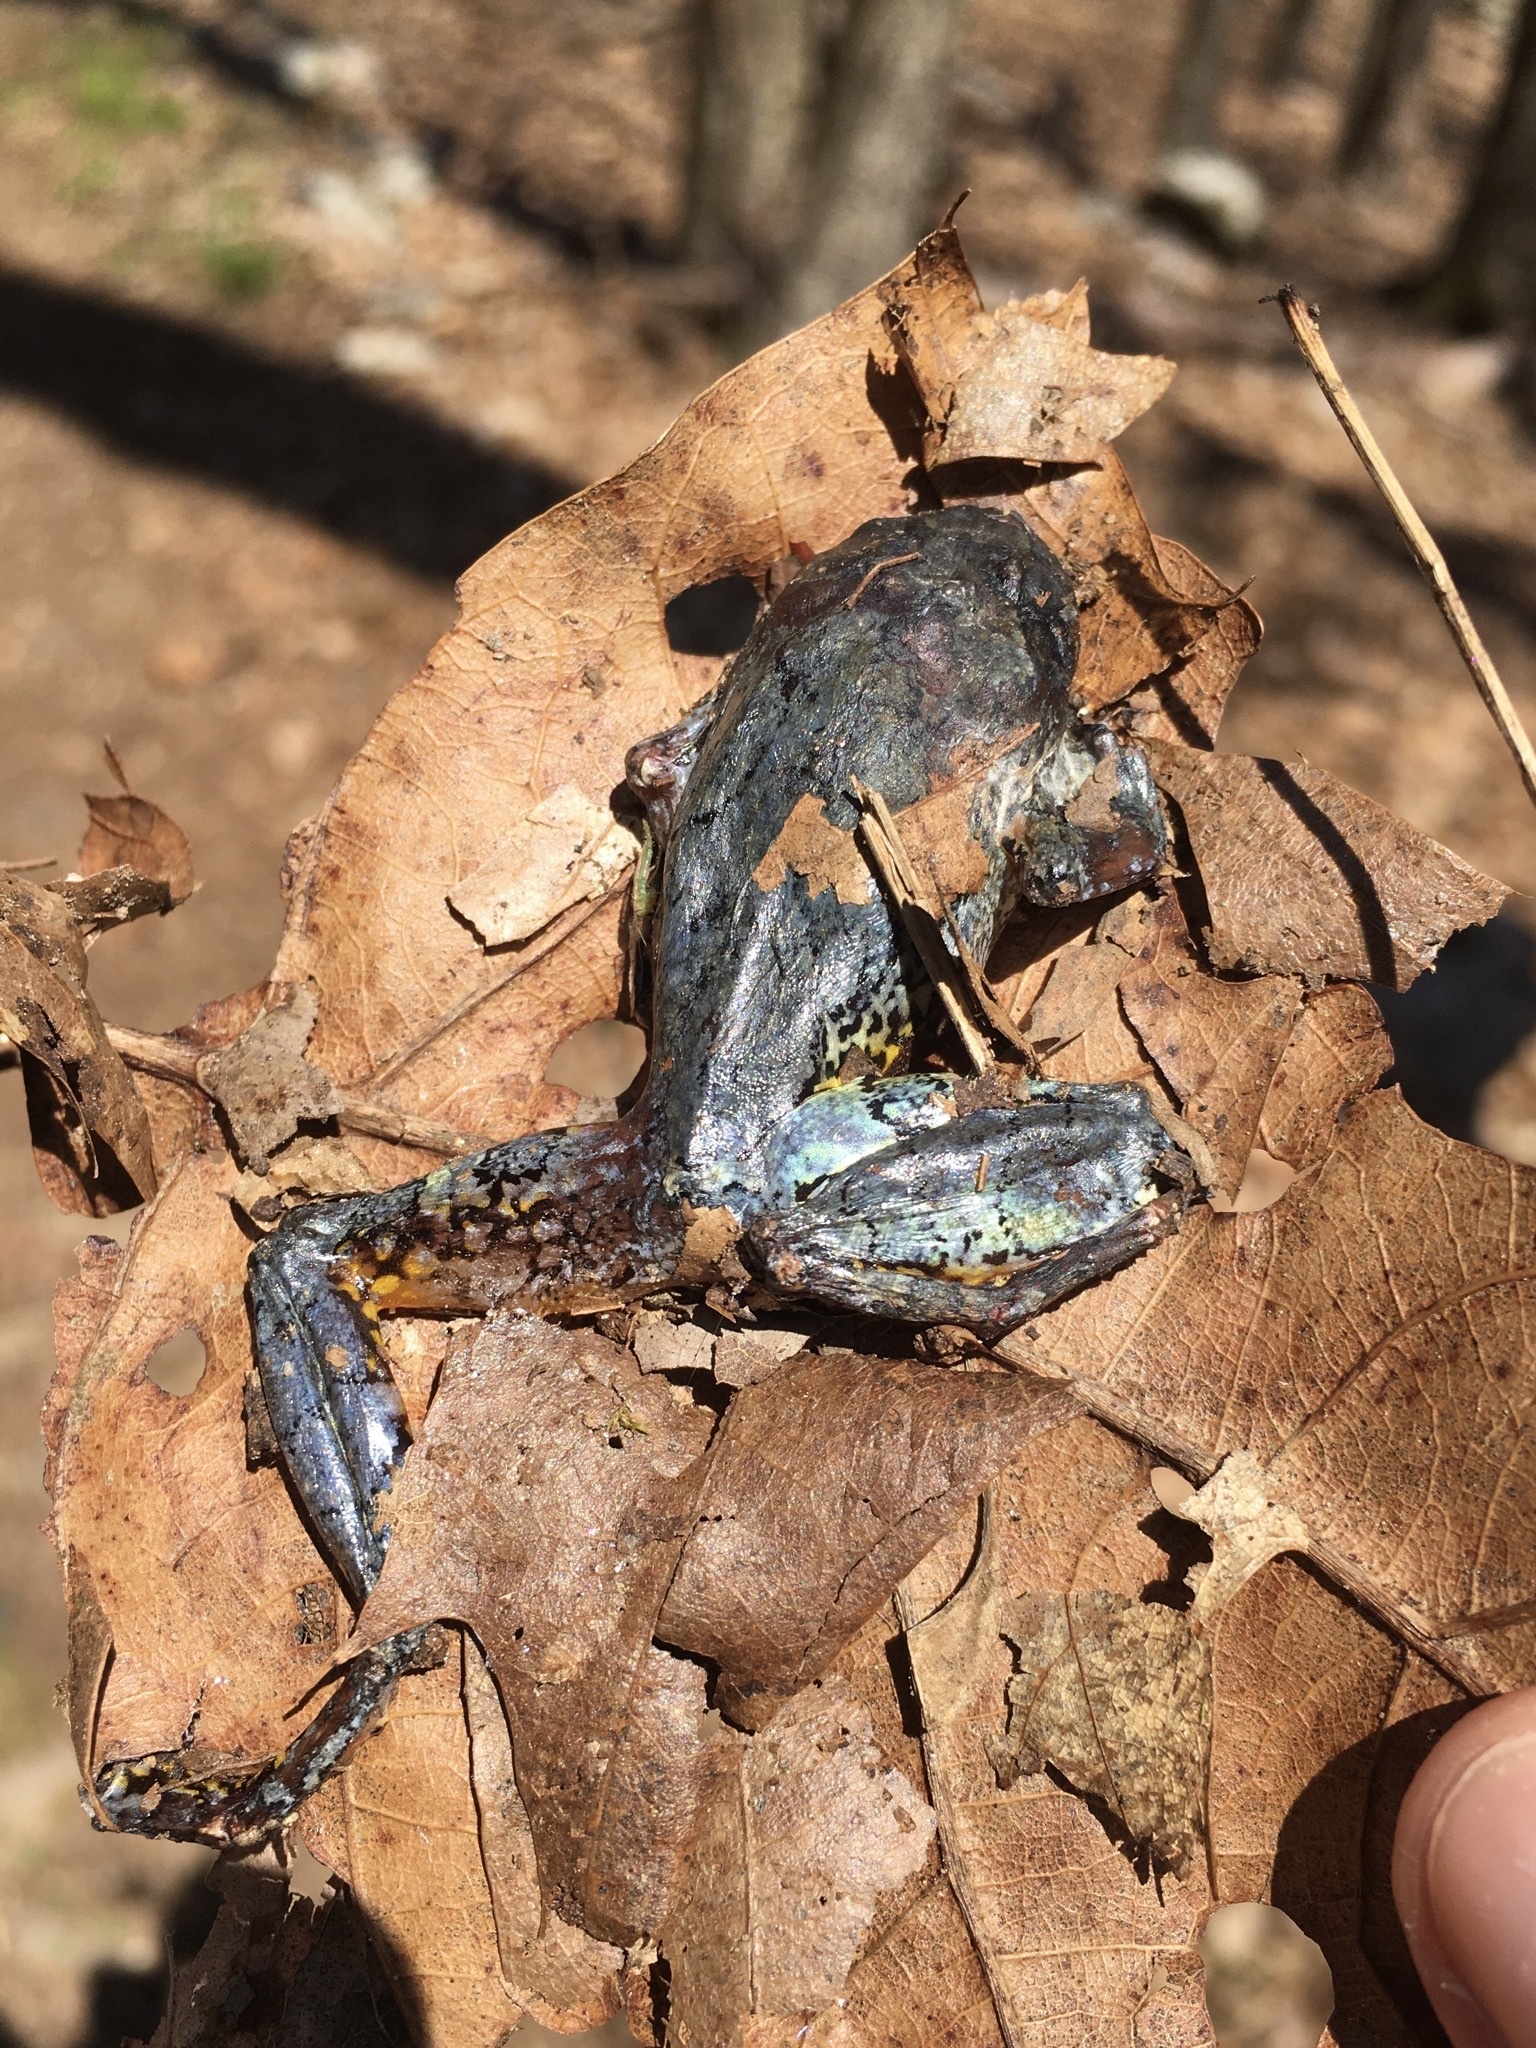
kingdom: Animalia
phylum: Chordata
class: Amphibia
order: Anura
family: Hylidae
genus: Dryophytes
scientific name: Dryophytes versicolor
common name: Gray treefrog
